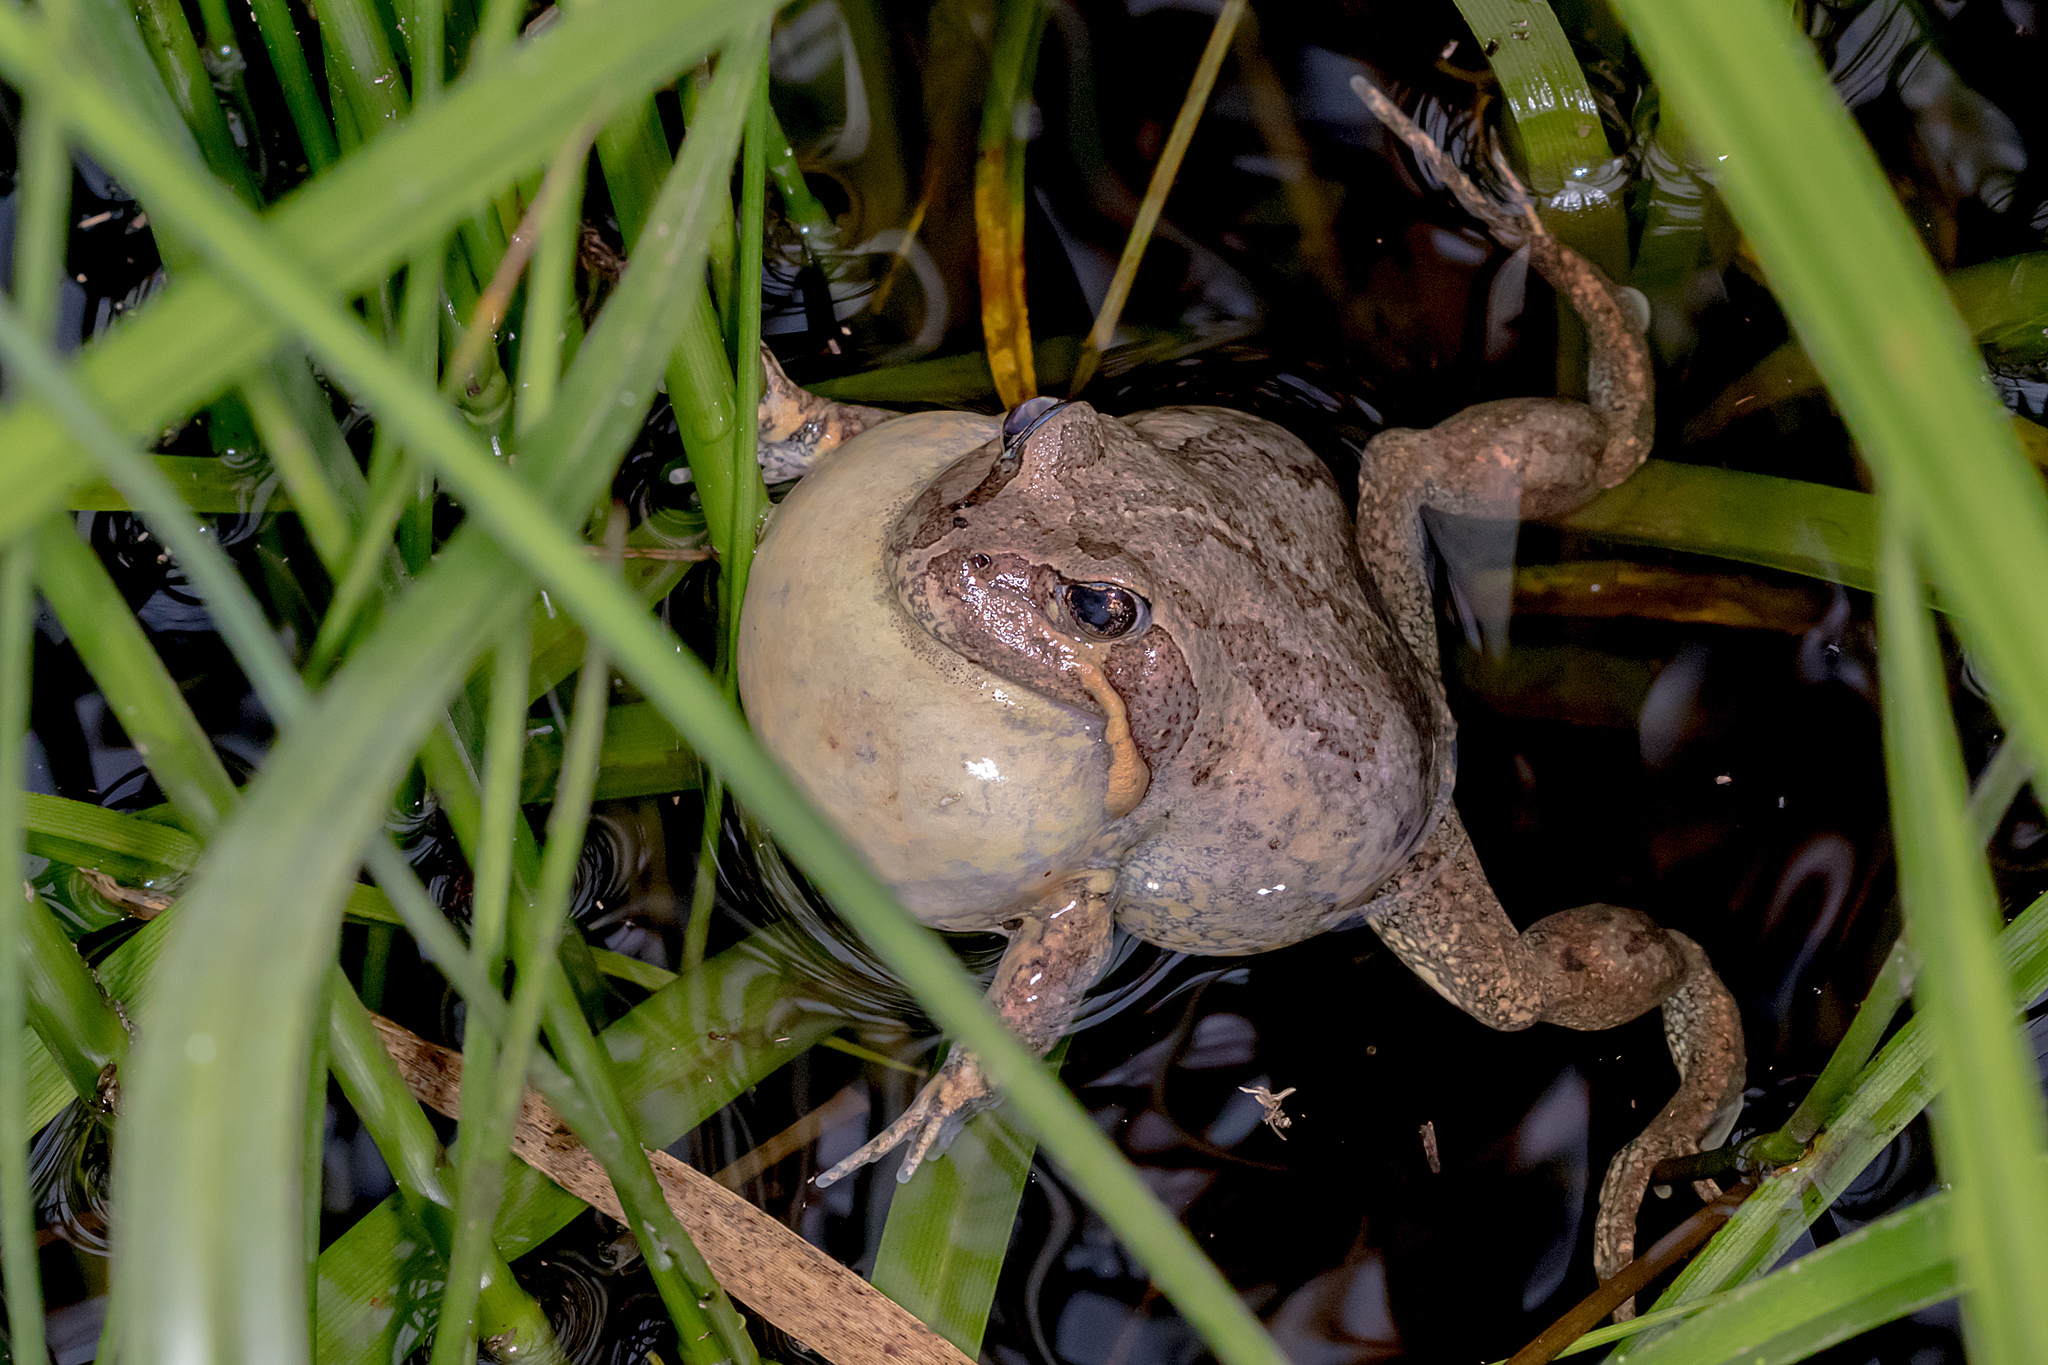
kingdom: Animalia
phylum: Chordata
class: Amphibia
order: Anura
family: Limnodynastidae
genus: Limnodynastes
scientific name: Limnodynastes dumerilii
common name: Banjo frog
